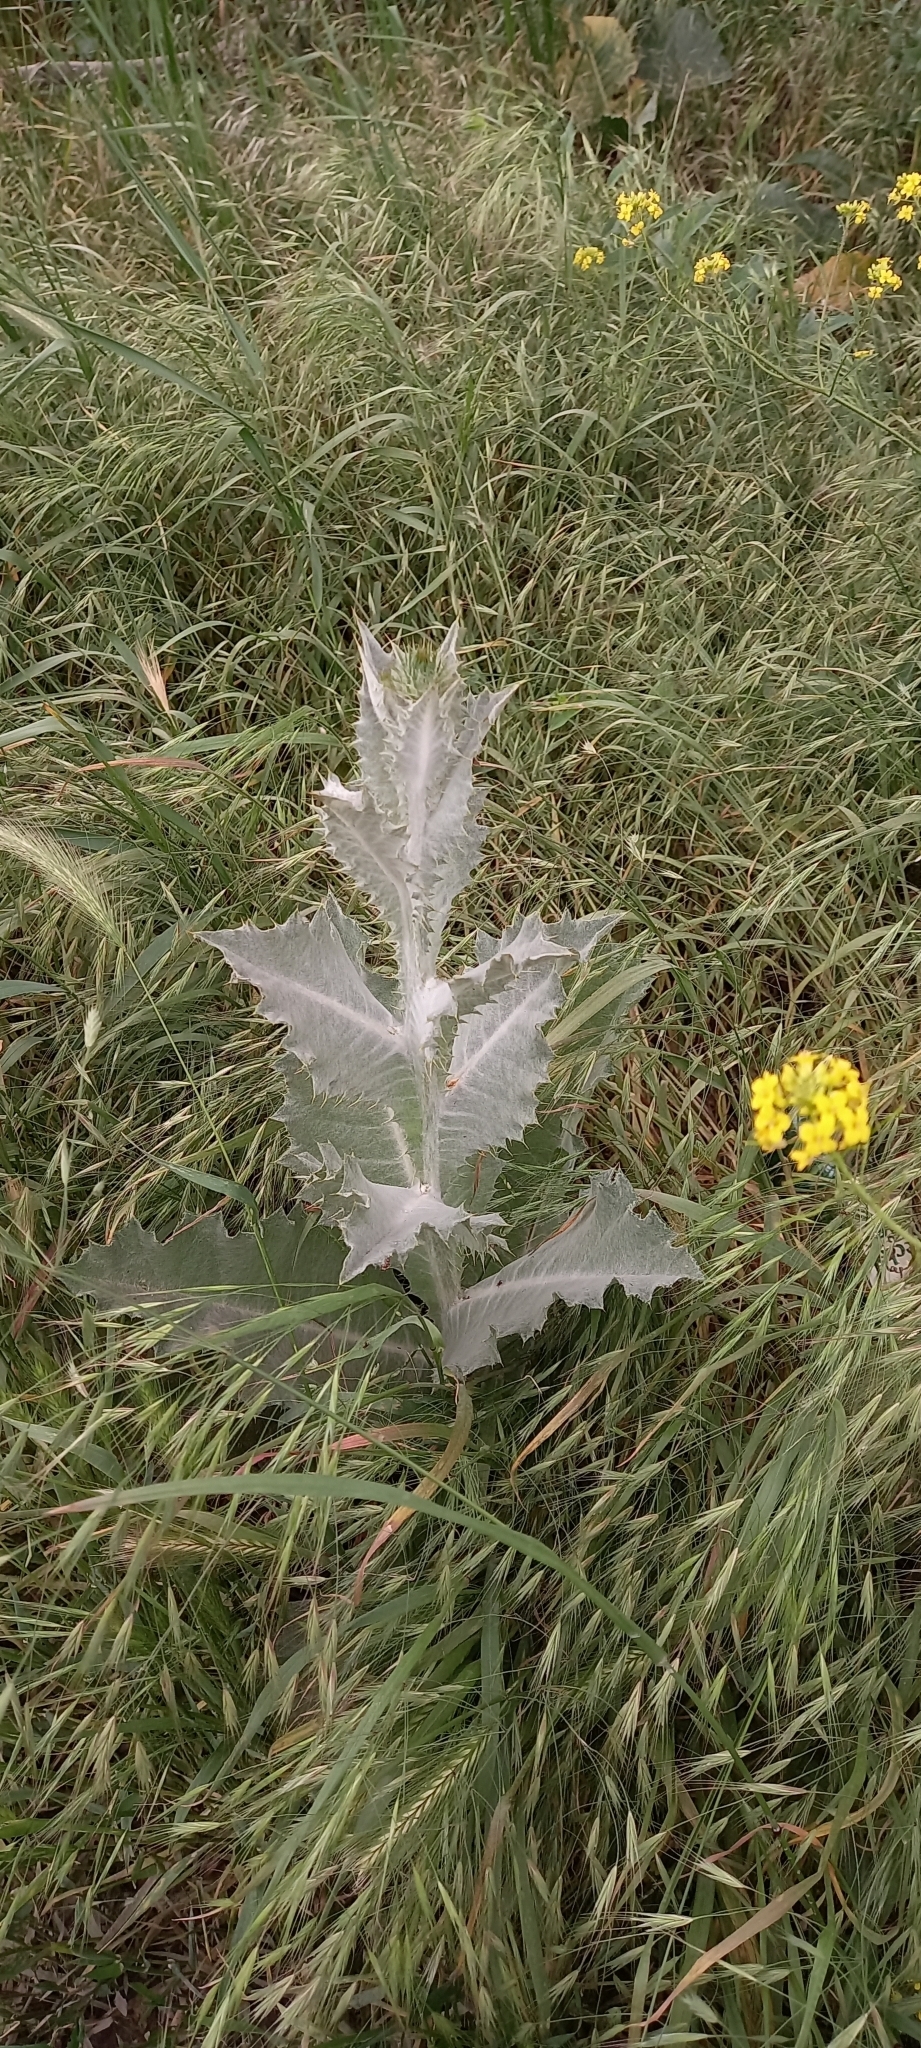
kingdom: Plantae
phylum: Tracheophyta
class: Magnoliopsida
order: Asterales
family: Asteraceae
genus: Onopordum
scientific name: Onopordum acanthium
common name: Scotch thistle
